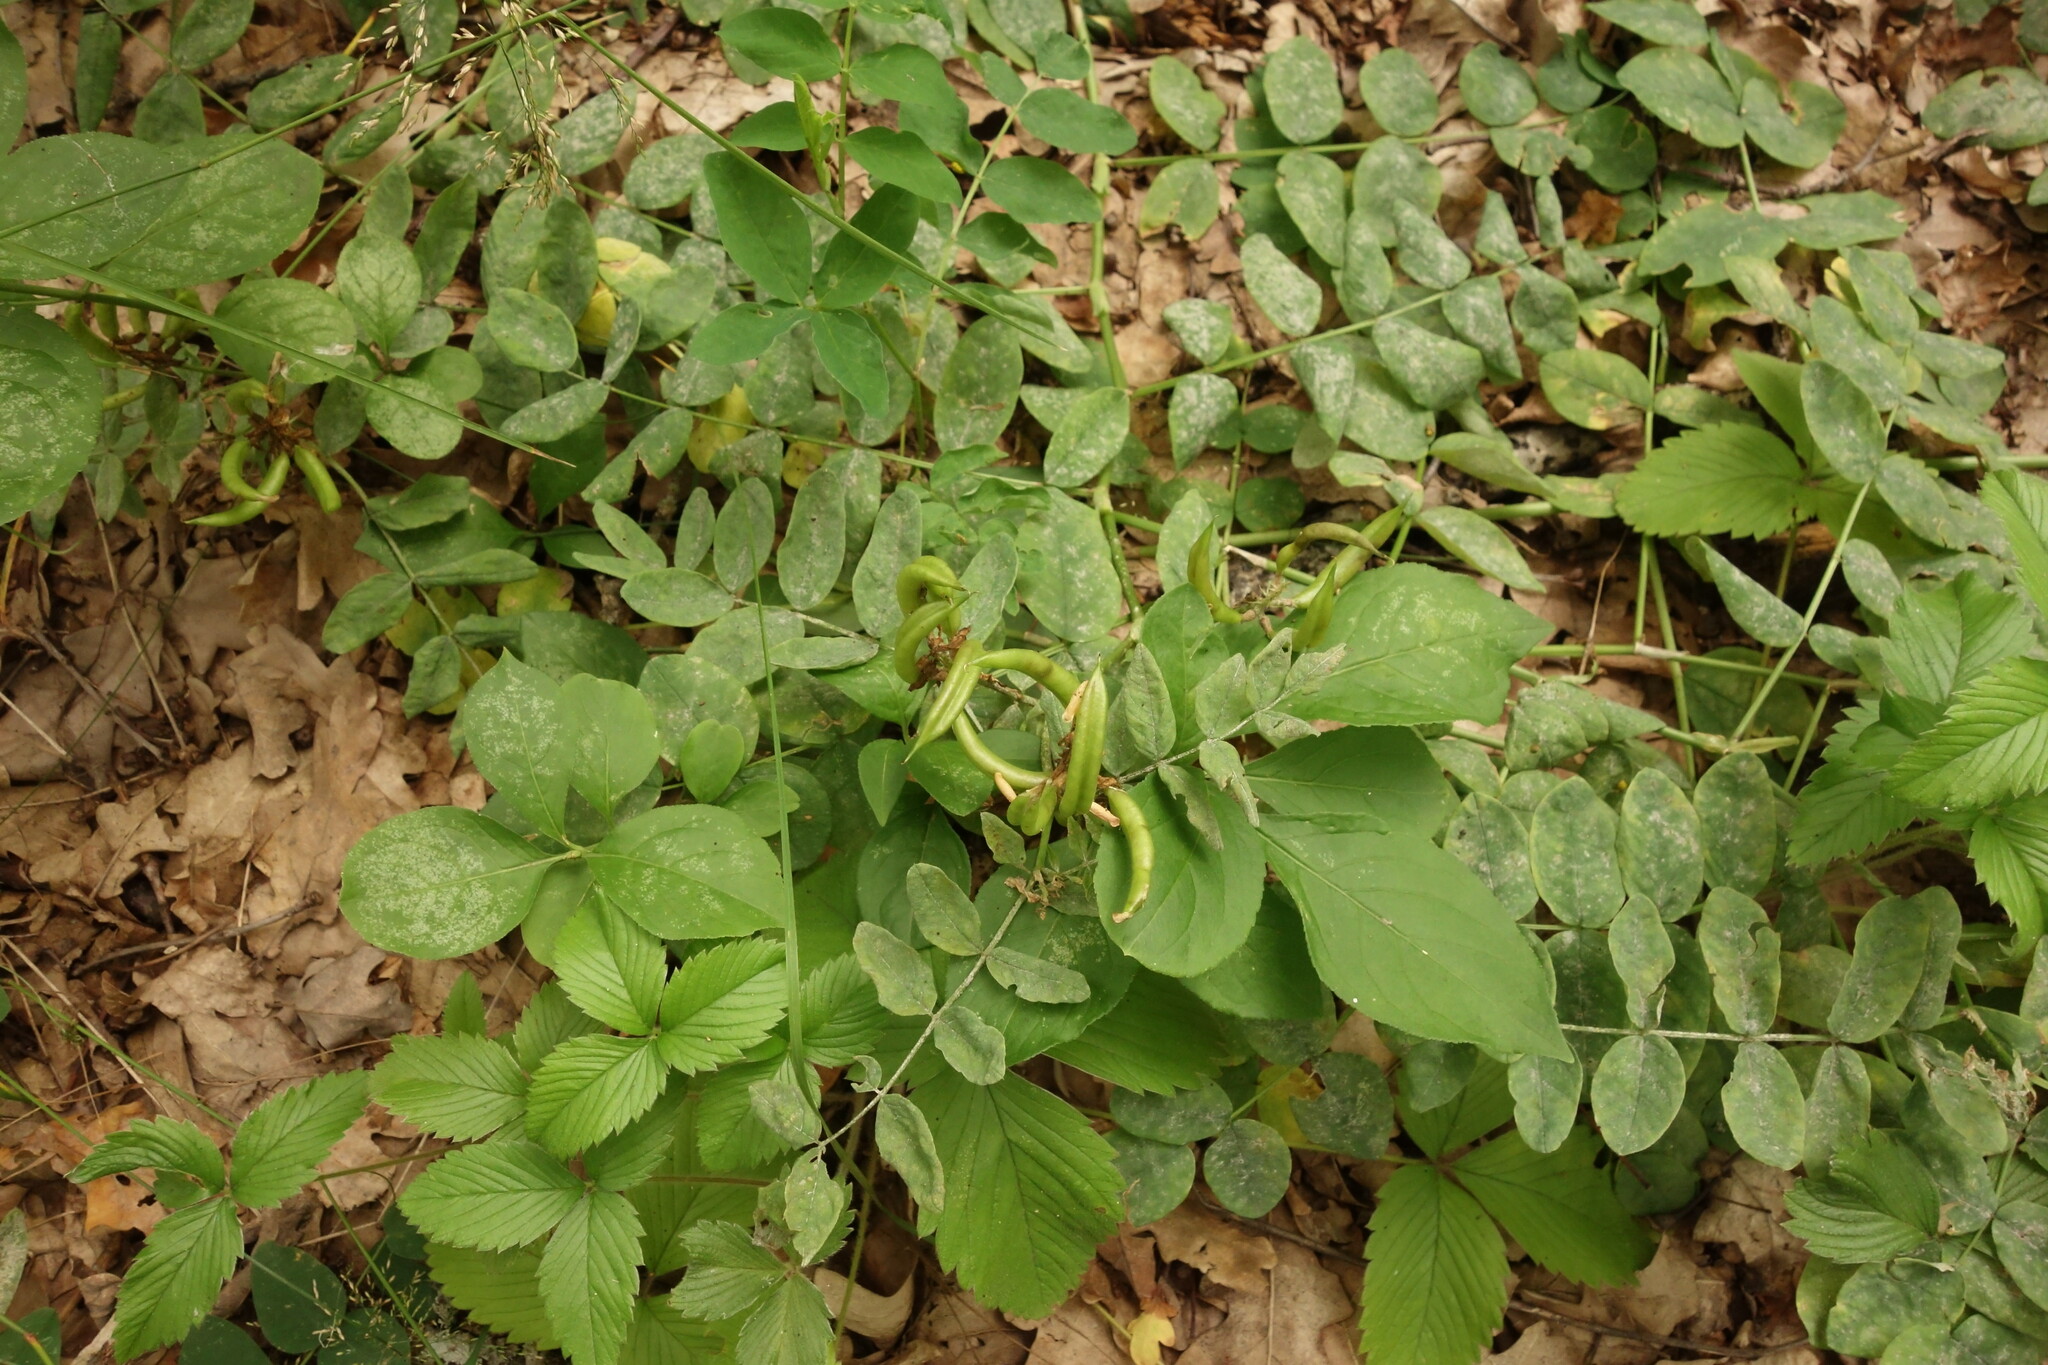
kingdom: Plantae
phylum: Tracheophyta
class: Magnoliopsida
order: Fabales
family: Fabaceae
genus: Astragalus
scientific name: Astragalus glycyphyllos
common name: Wild liquorice
